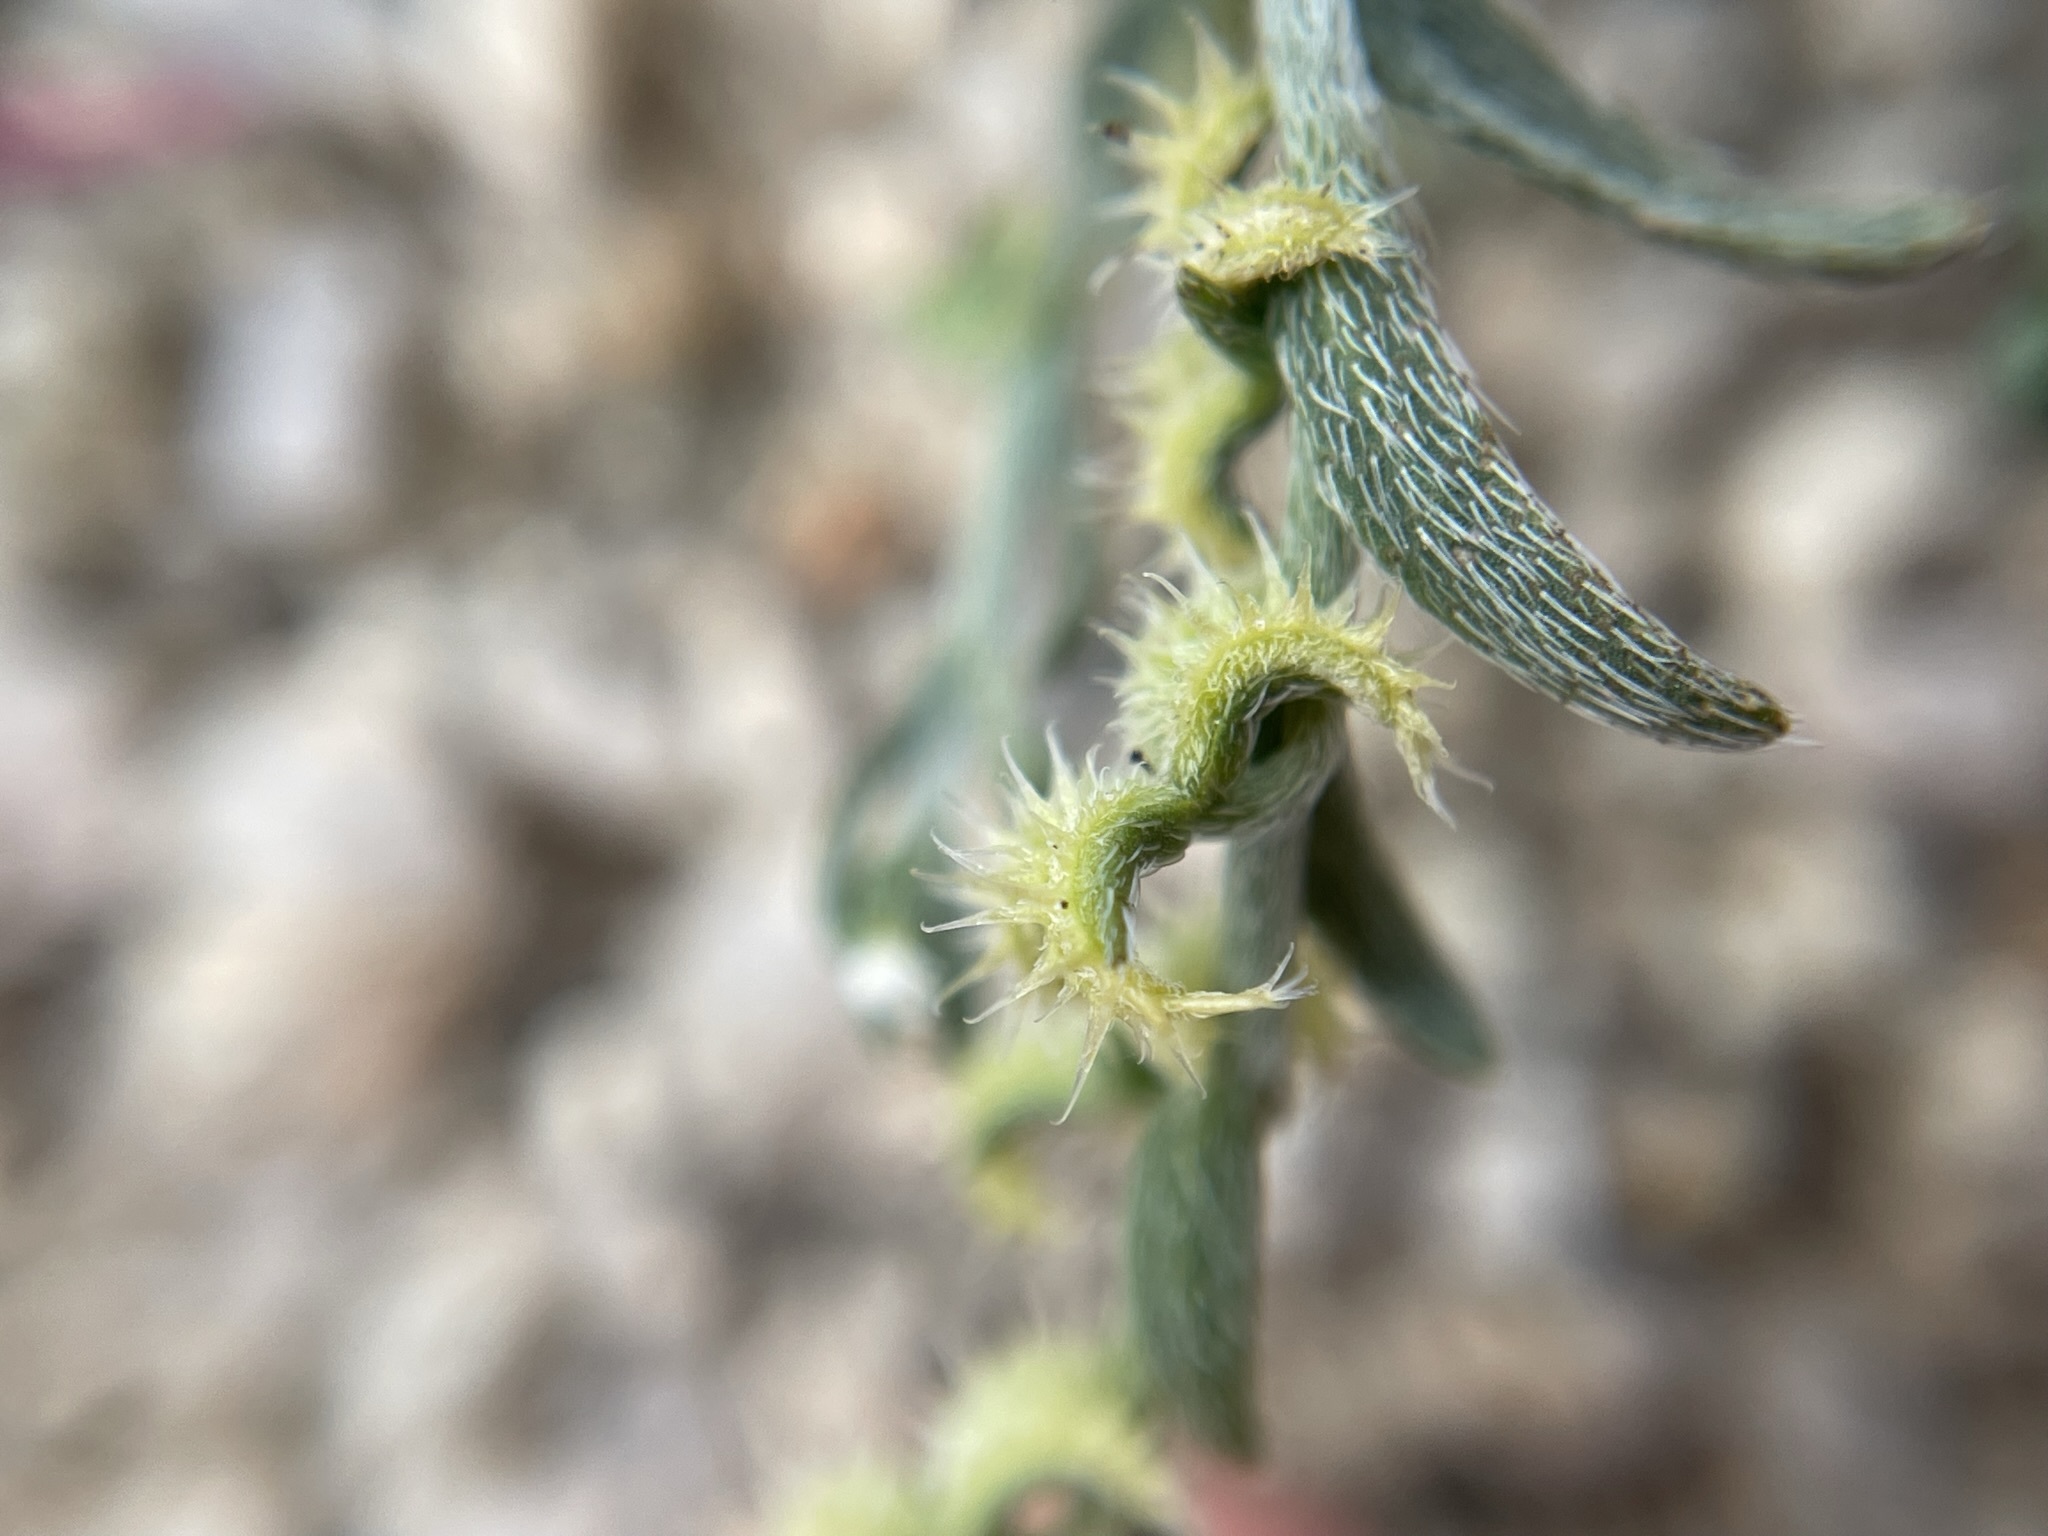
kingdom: Plantae
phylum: Tracheophyta
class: Magnoliopsida
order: Boraginales
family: Boraginaceae
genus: Pectocarya
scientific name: Pectocarya recurvata
